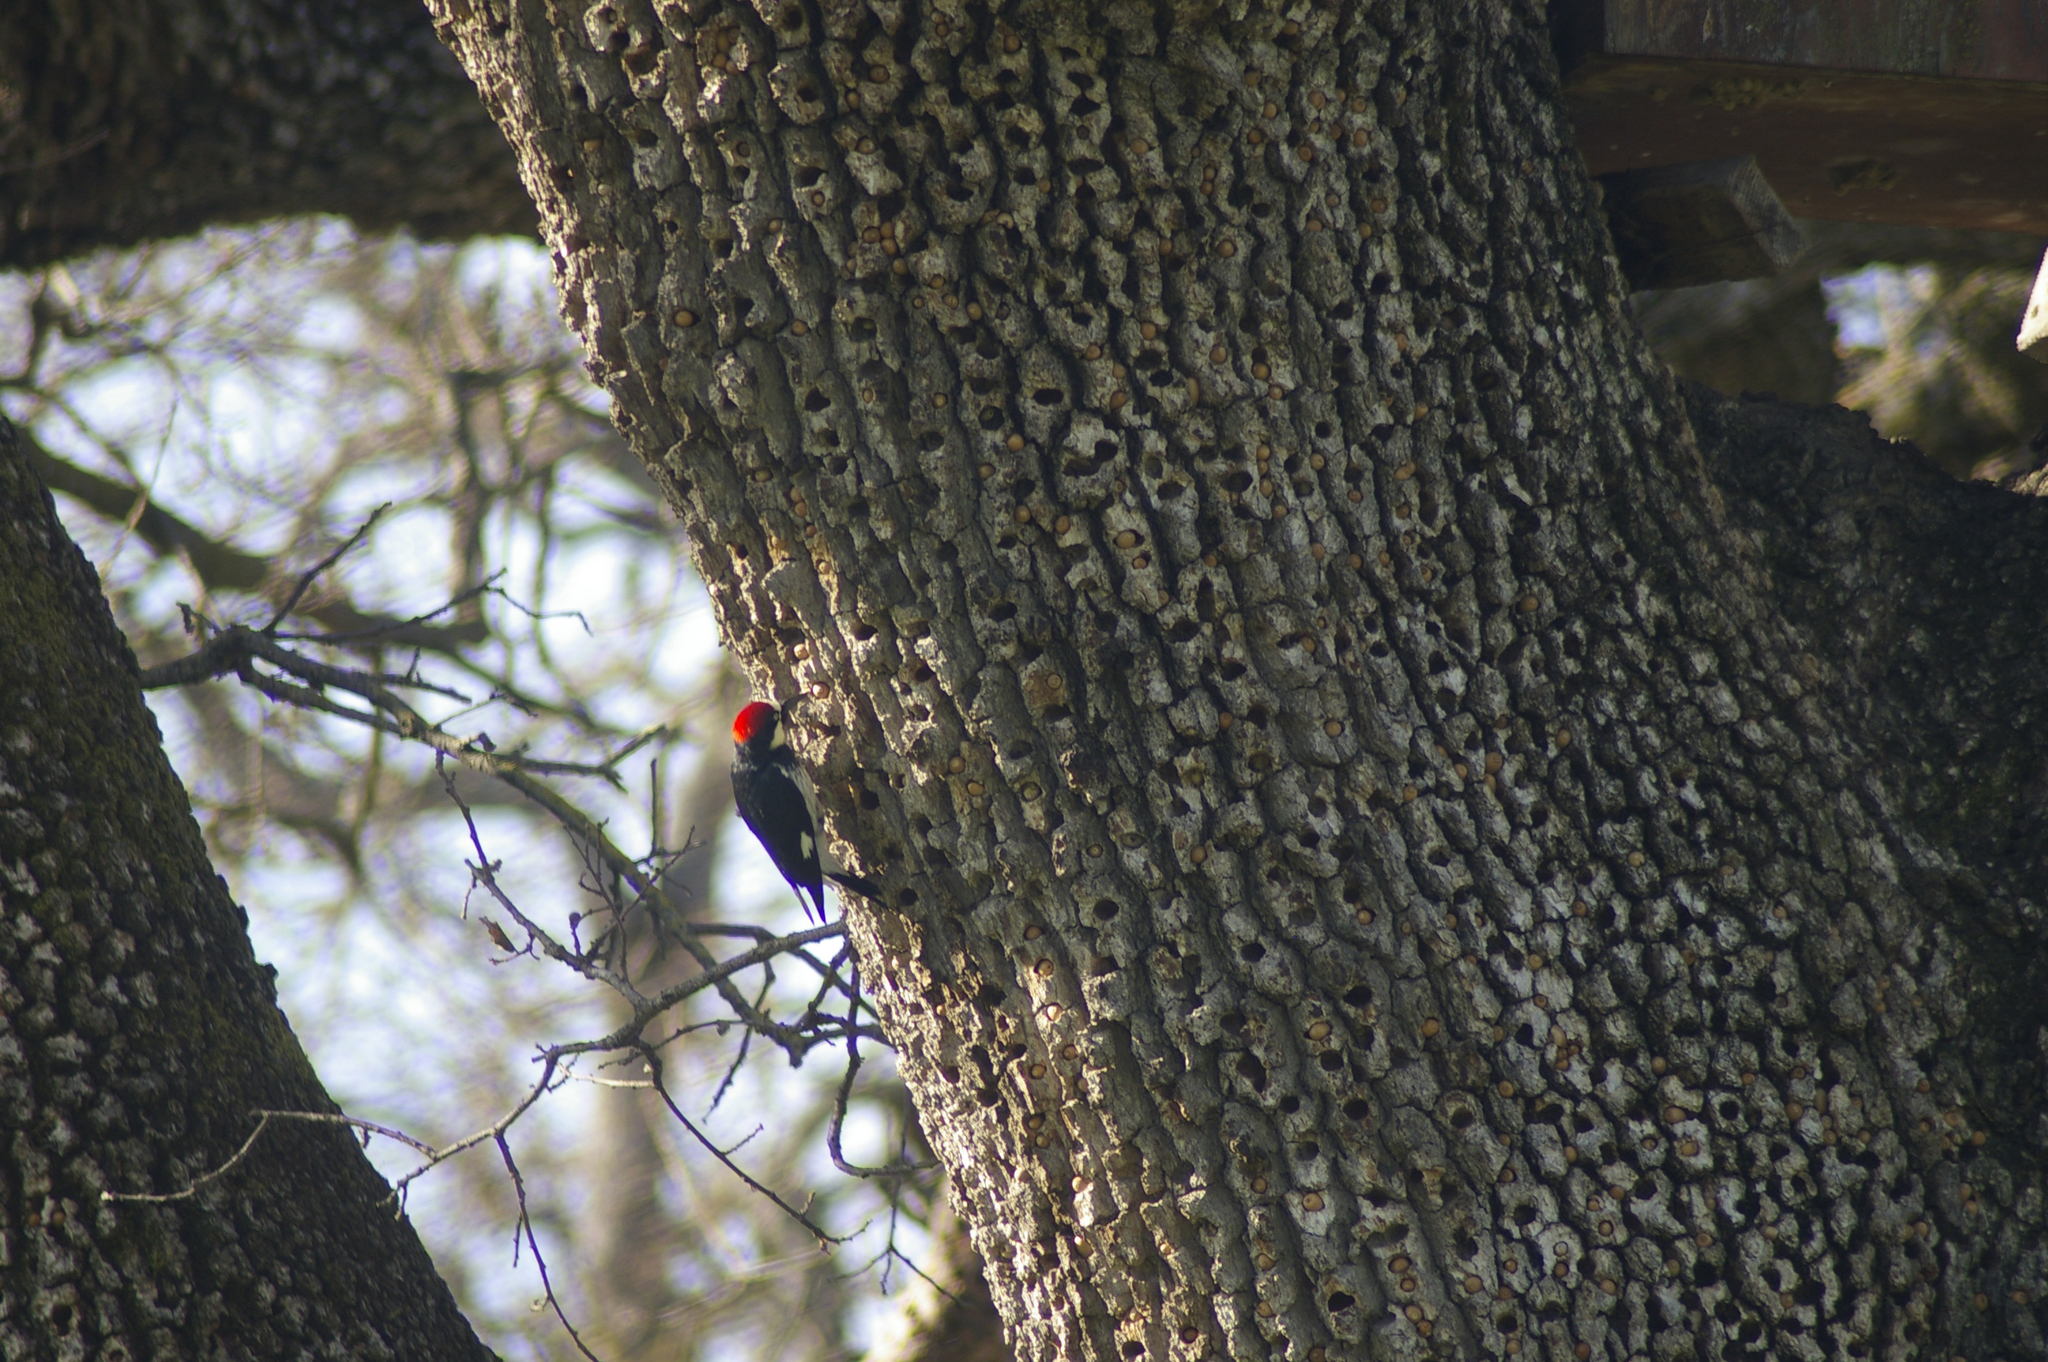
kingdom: Animalia
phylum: Chordata
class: Aves
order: Piciformes
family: Picidae
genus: Melanerpes
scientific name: Melanerpes formicivorus
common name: Acorn woodpecker
